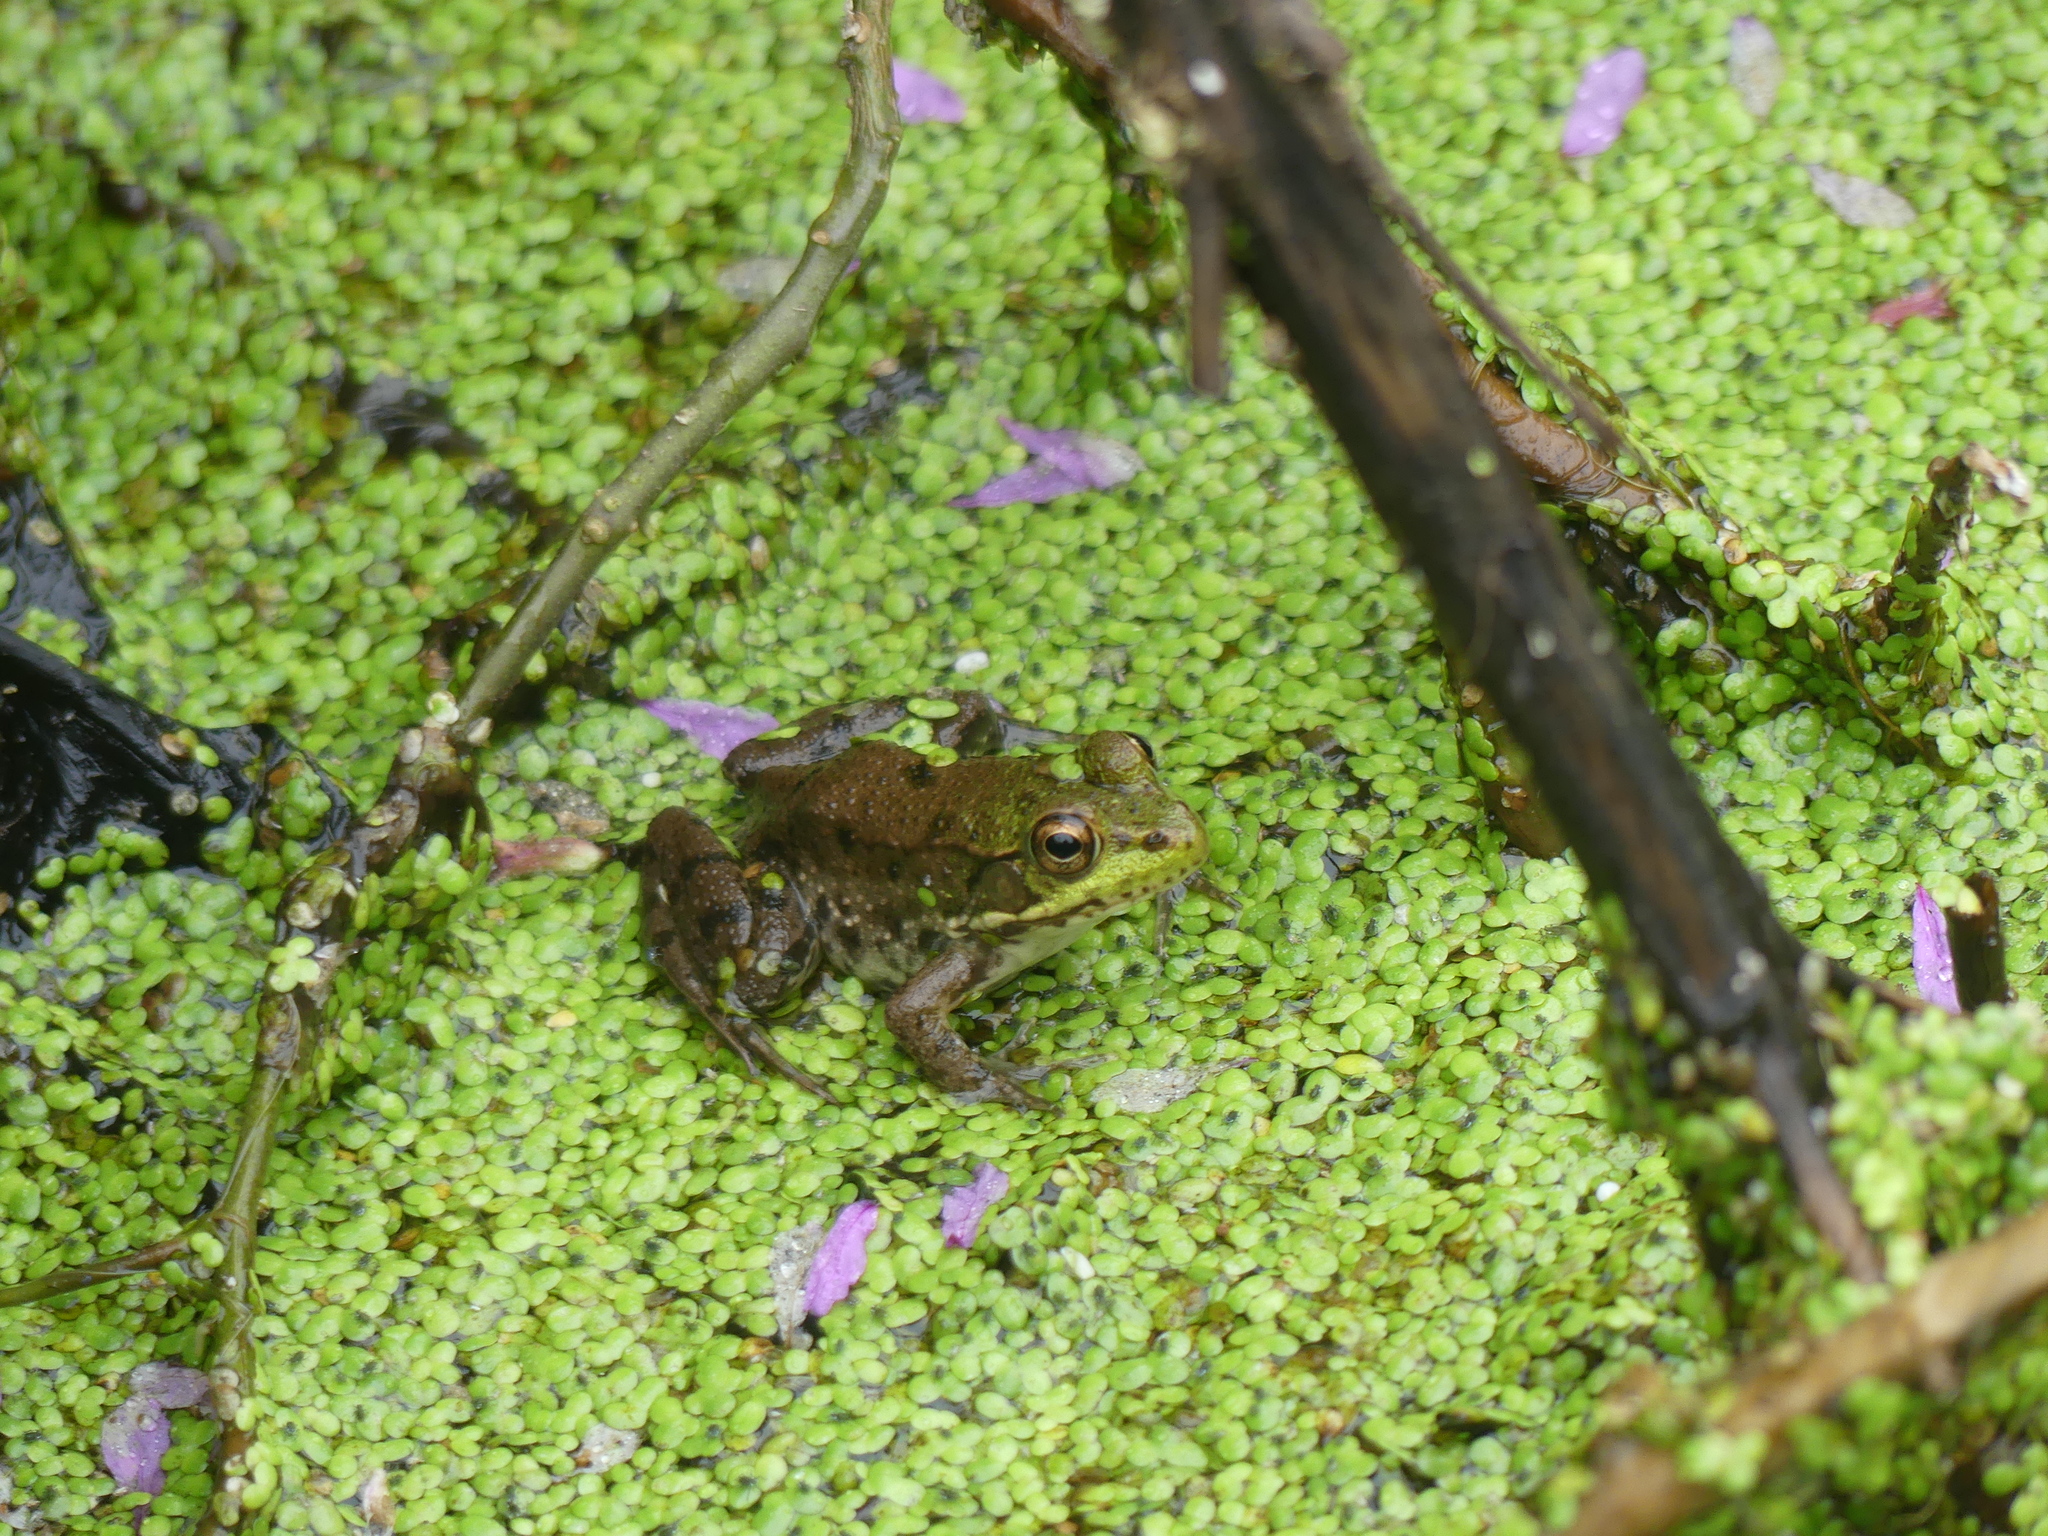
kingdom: Animalia
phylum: Chordata
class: Amphibia
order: Anura
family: Ranidae
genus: Lithobates
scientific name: Lithobates clamitans
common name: Green frog
